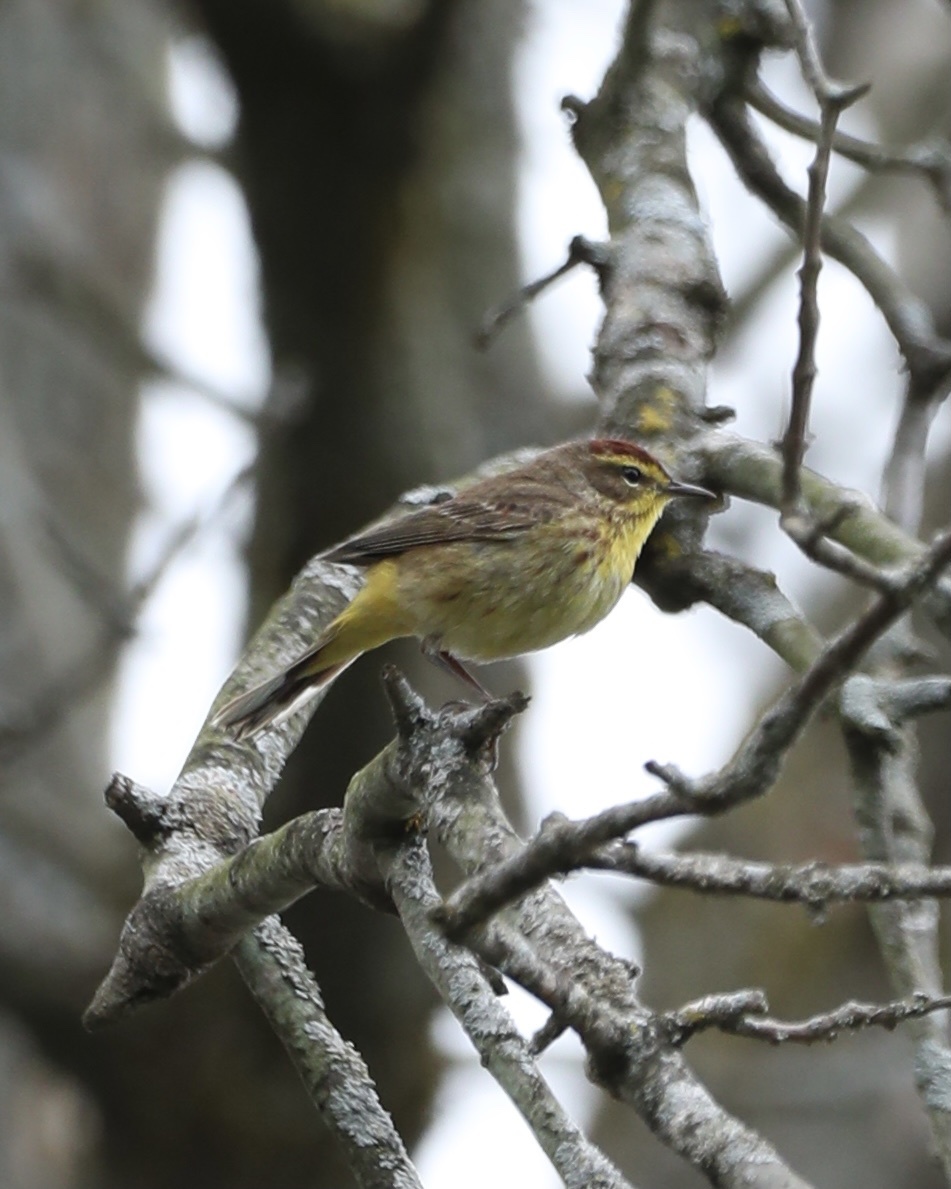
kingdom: Animalia
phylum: Chordata
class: Aves
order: Passeriformes
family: Parulidae
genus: Setophaga
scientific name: Setophaga palmarum
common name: Palm warbler
